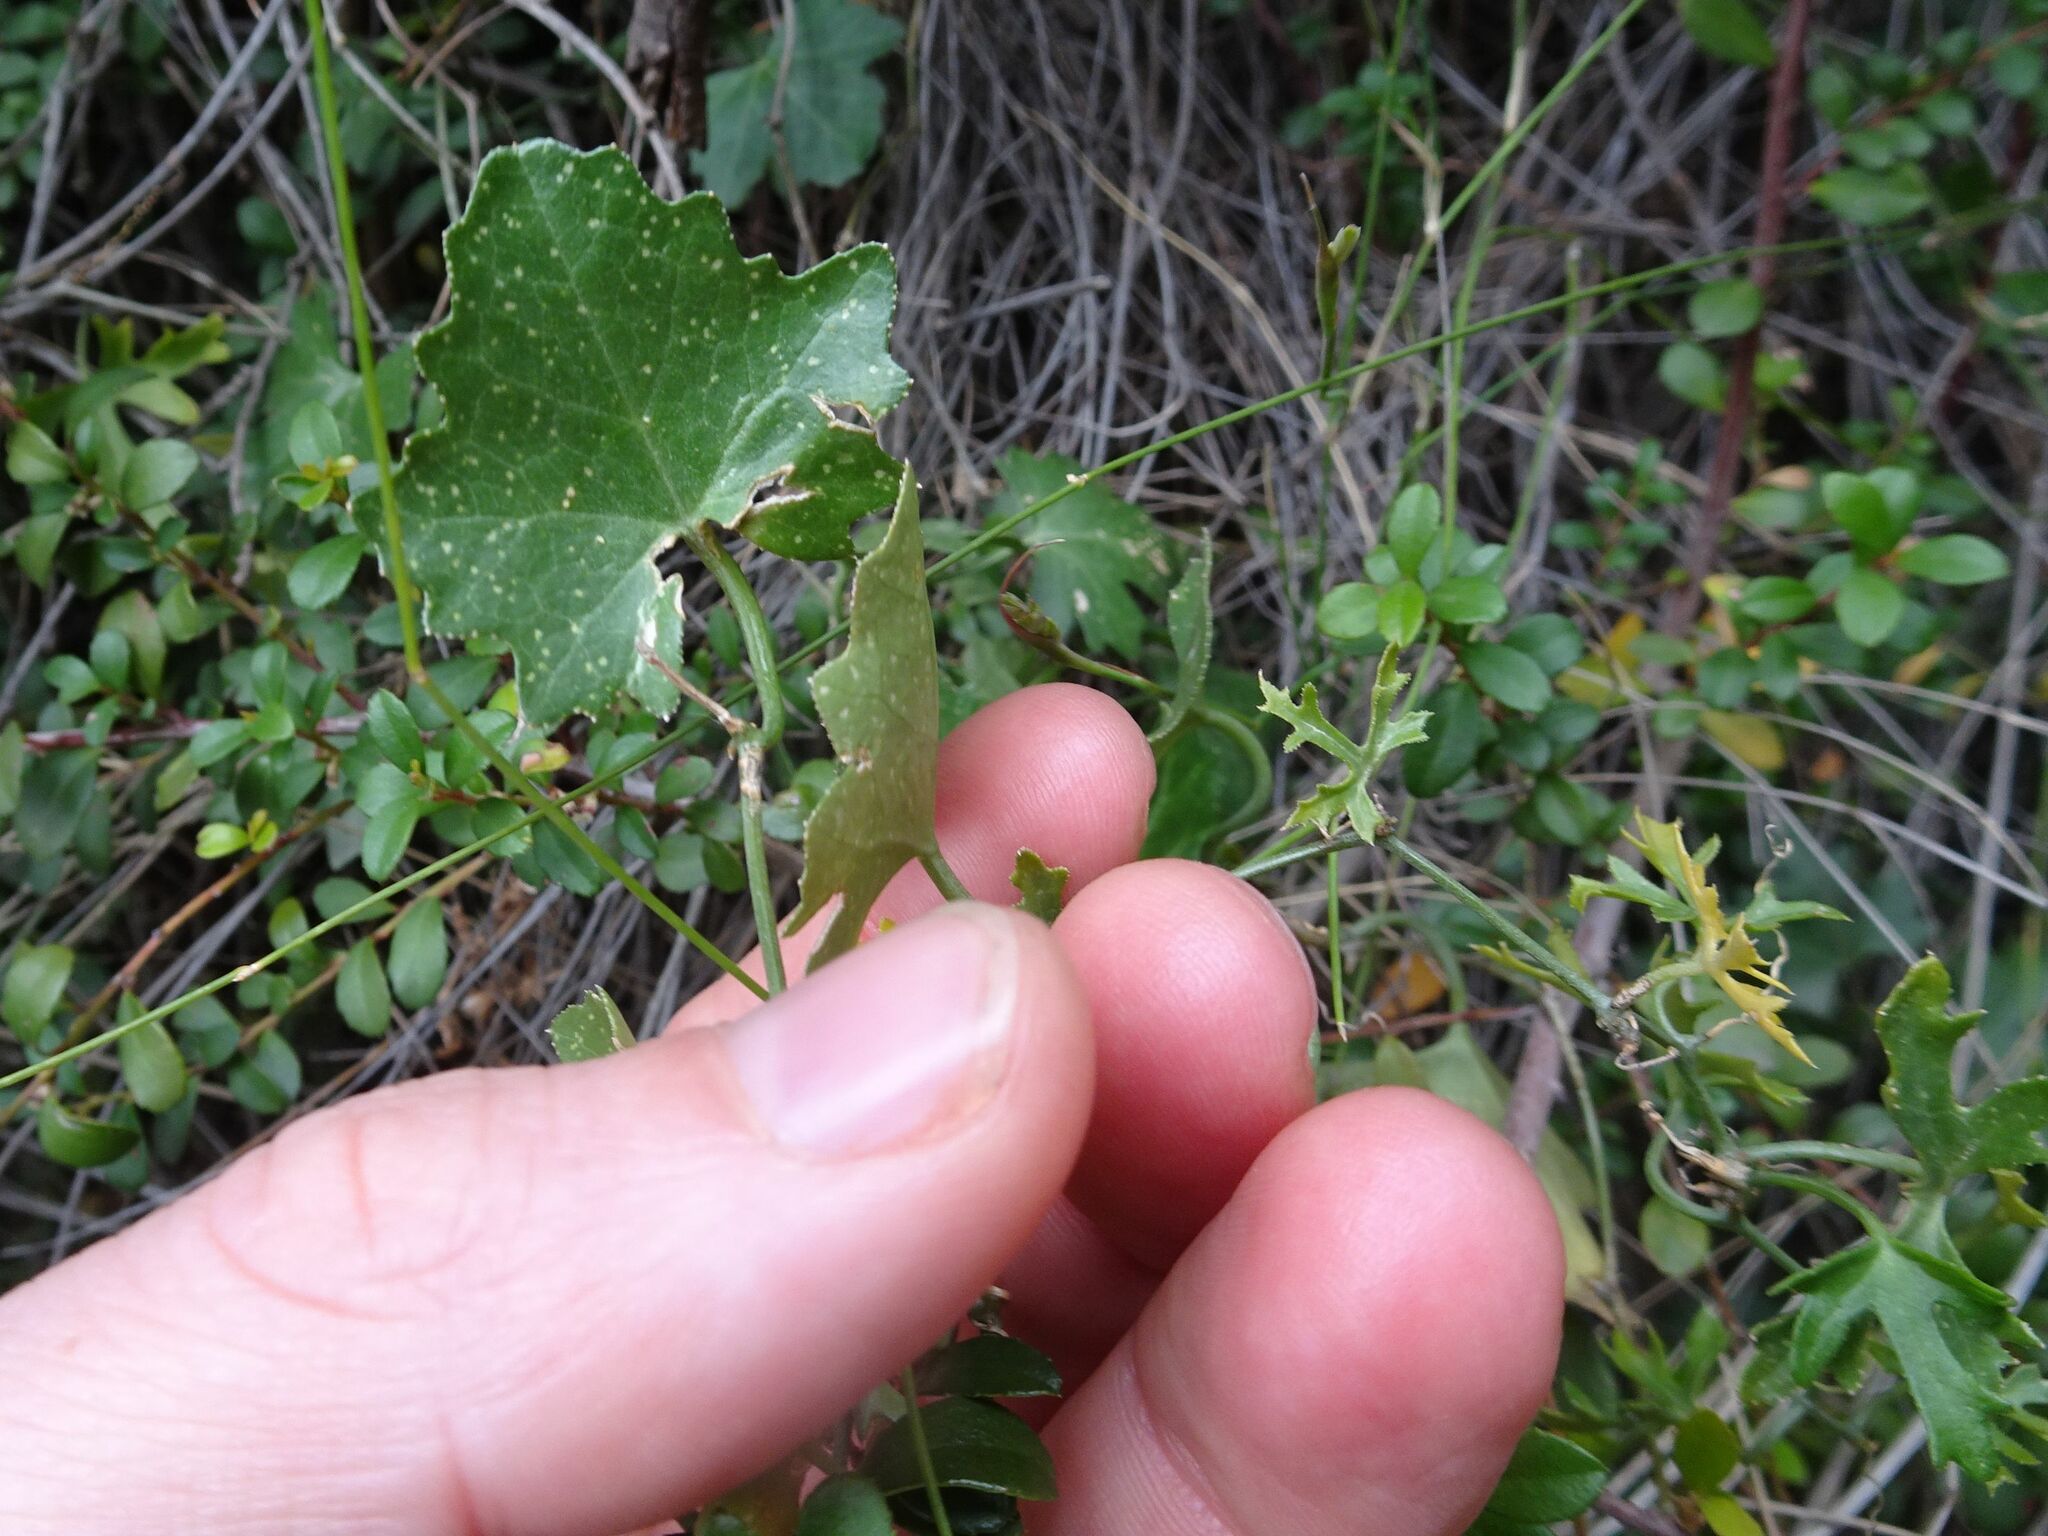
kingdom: Plantae
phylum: Tracheophyta
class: Magnoliopsida
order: Cucurbitales
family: Cucurbitaceae
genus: Kedrostis
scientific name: Kedrostis capensis
